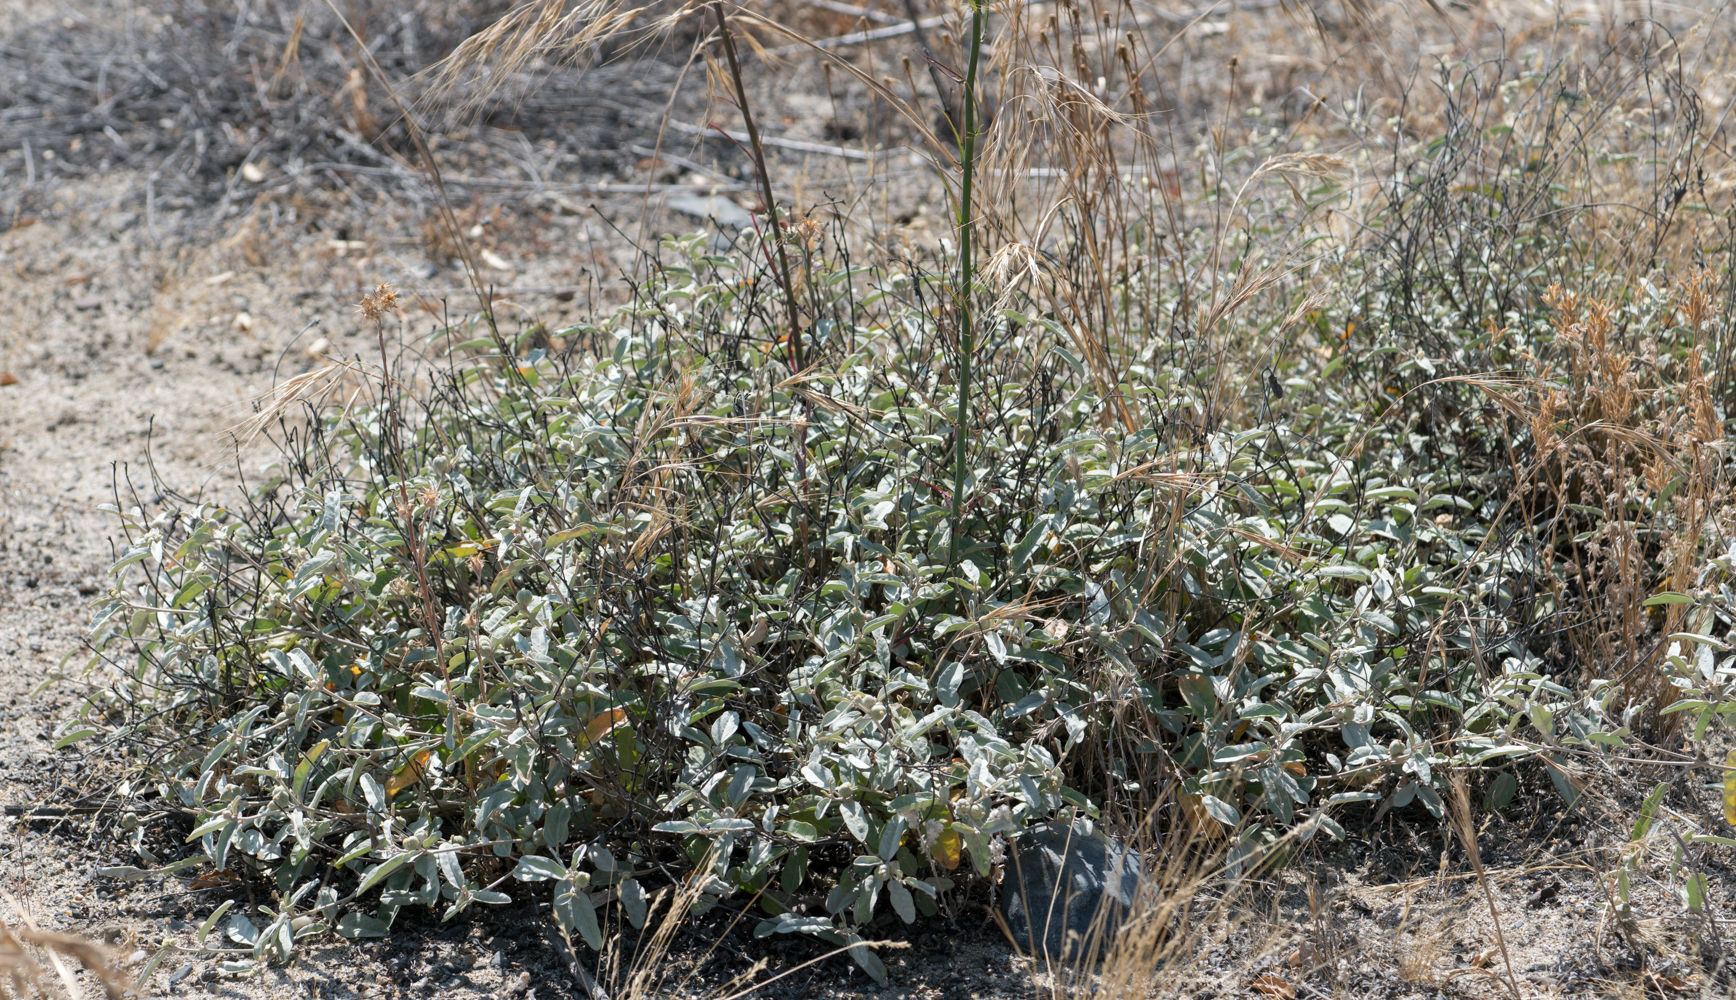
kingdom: Plantae
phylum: Tracheophyta
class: Magnoliopsida
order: Malpighiales
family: Euphorbiaceae
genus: Croton
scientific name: Croton californicus
